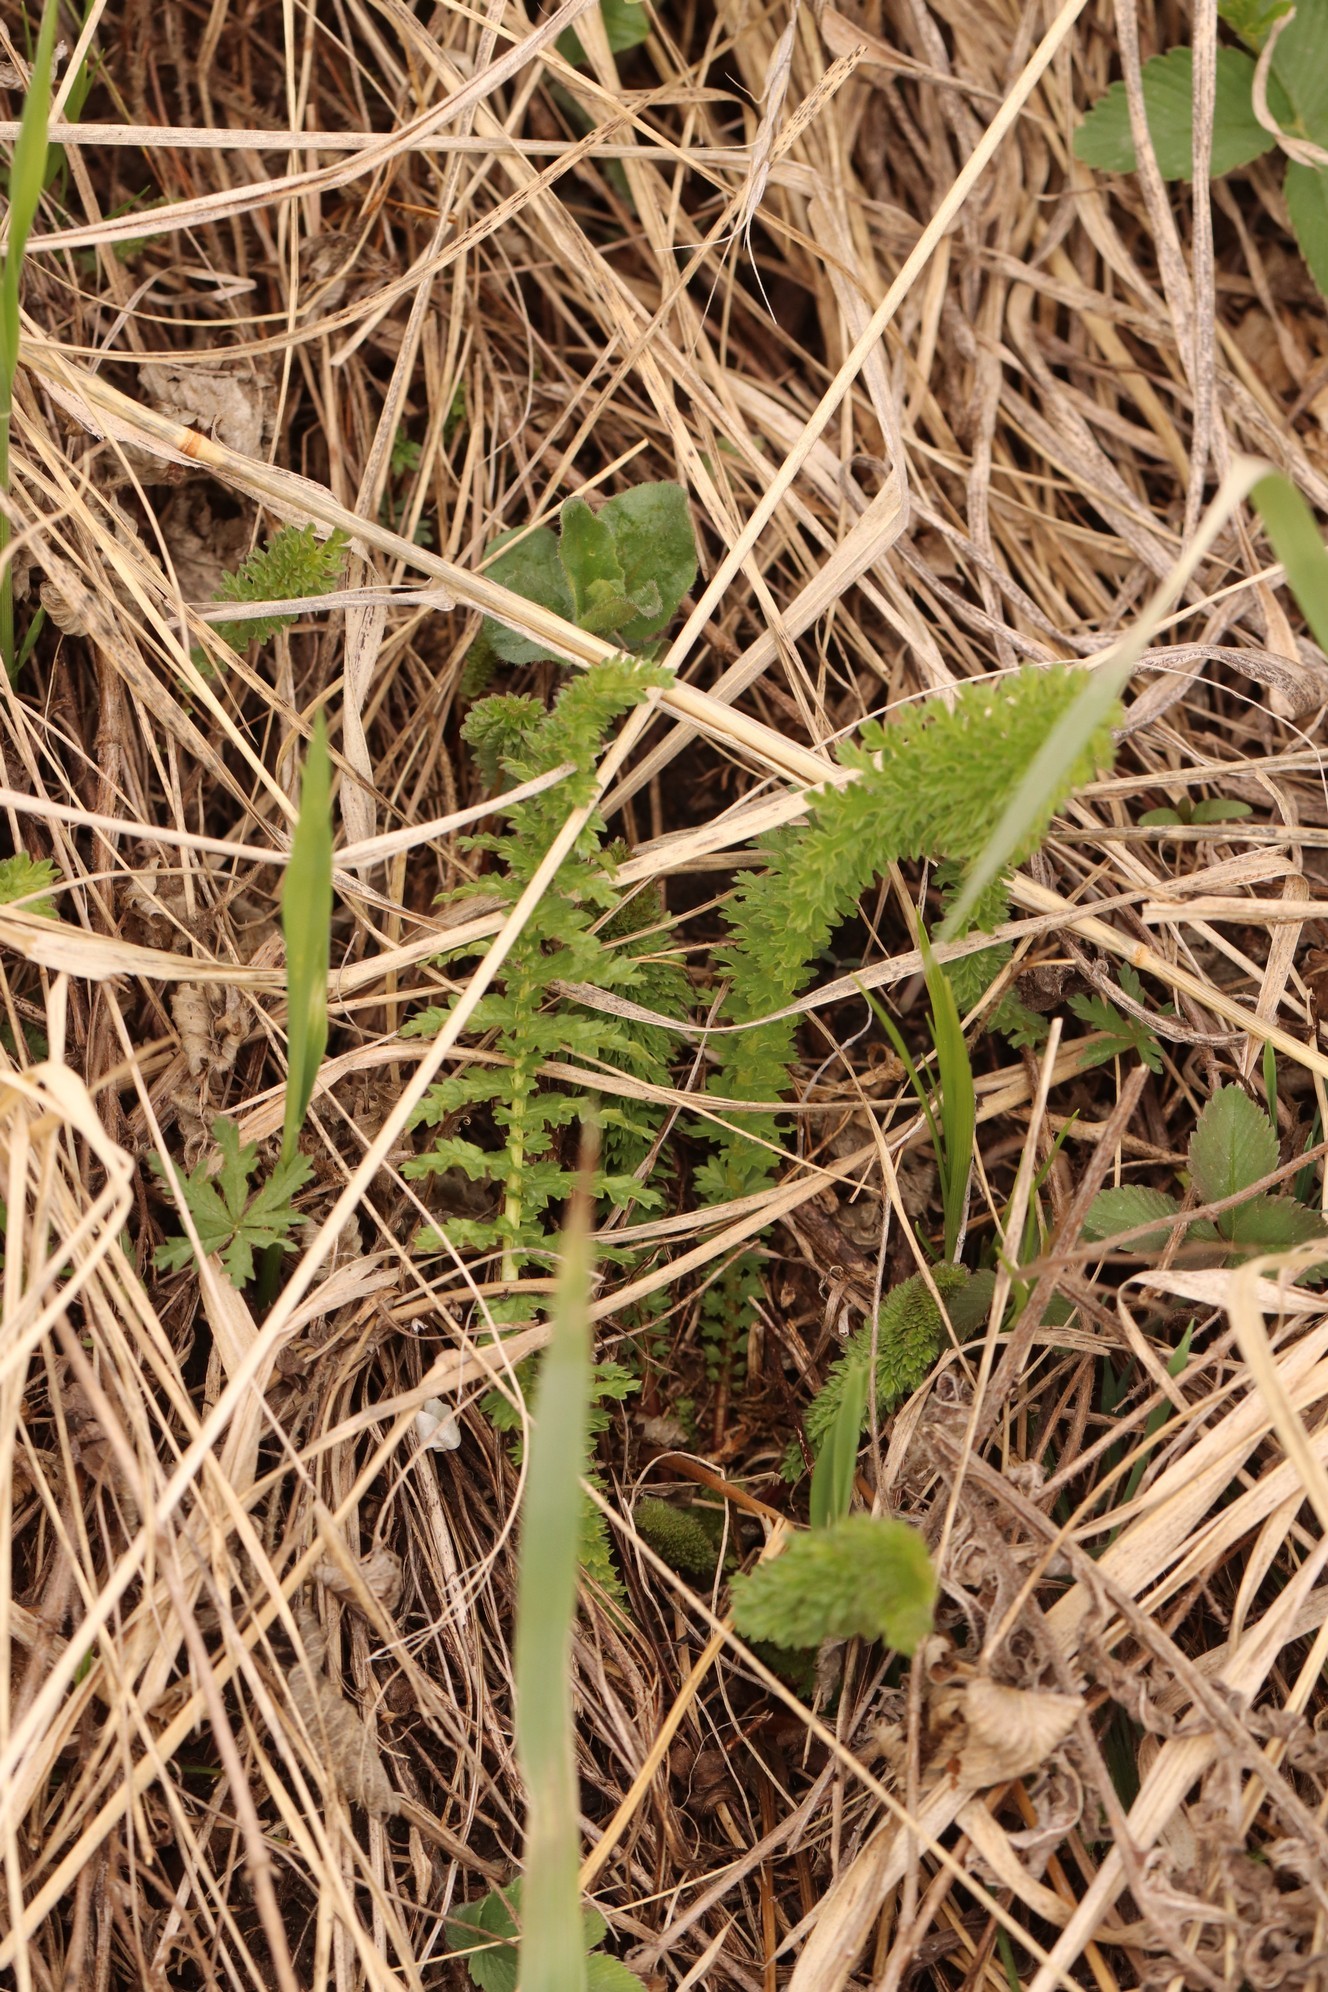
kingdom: Plantae
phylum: Tracheophyta
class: Magnoliopsida
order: Rosales
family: Rosaceae
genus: Filipendula
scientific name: Filipendula vulgaris
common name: Dropwort
